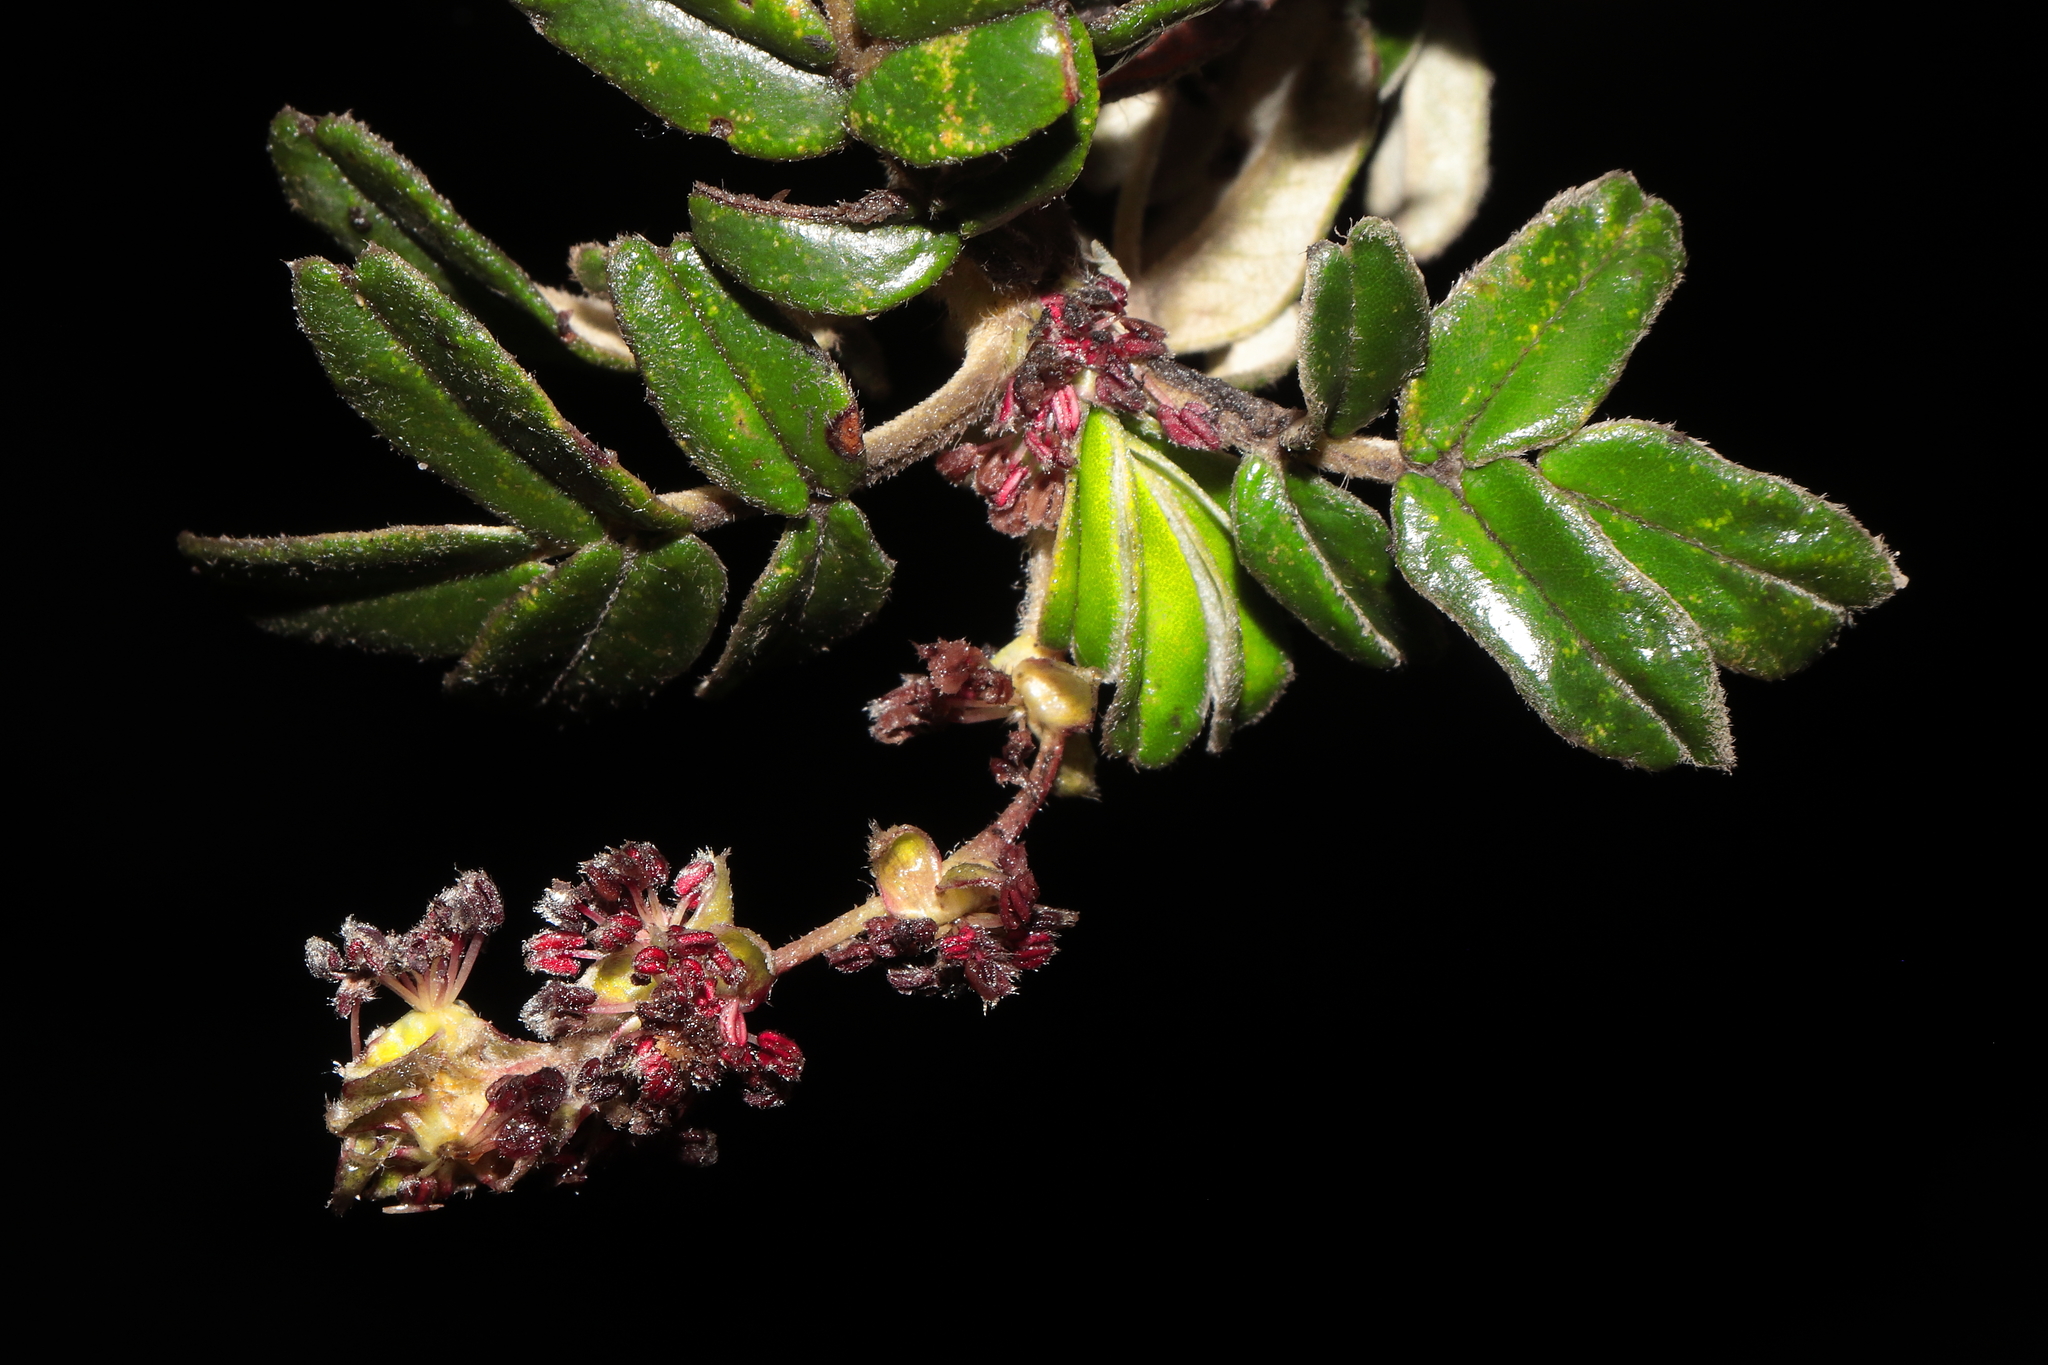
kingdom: Plantae
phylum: Tracheophyta
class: Magnoliopsida
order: Rosales
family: Rosaceae
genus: Polylepis
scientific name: Polylepis weberbaueri
